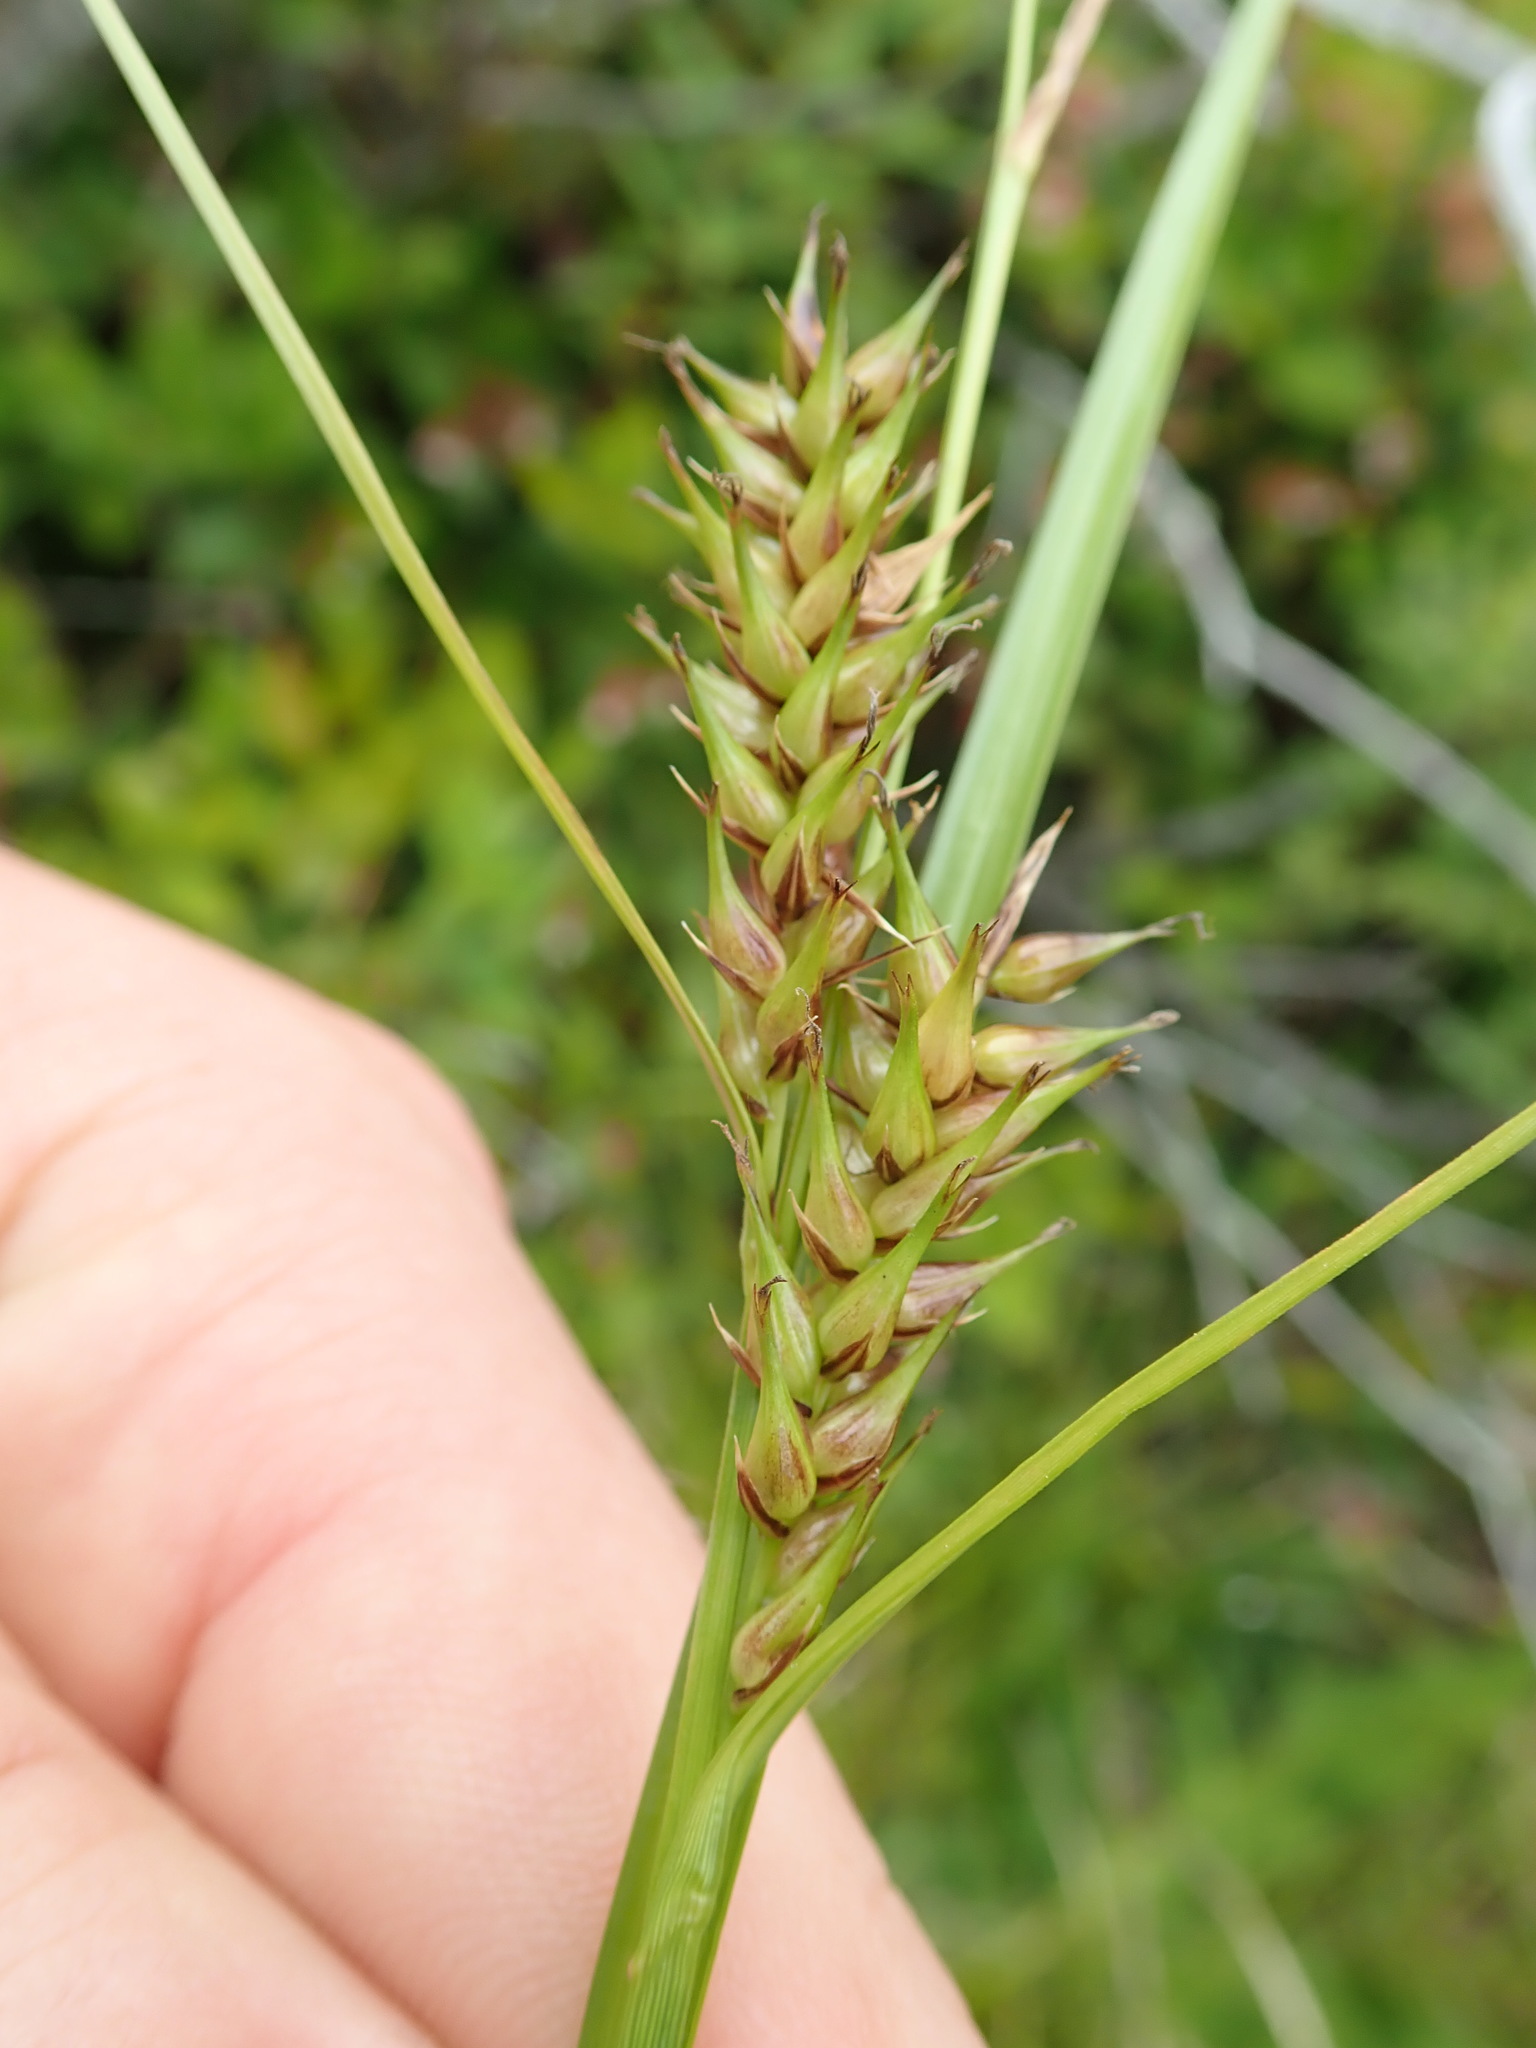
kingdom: Plantae
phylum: Tracheophyta
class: Liliopsida
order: Poales
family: Cyperaceae
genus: Carex
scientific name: Carex exsiccata
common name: Beaked sedge
